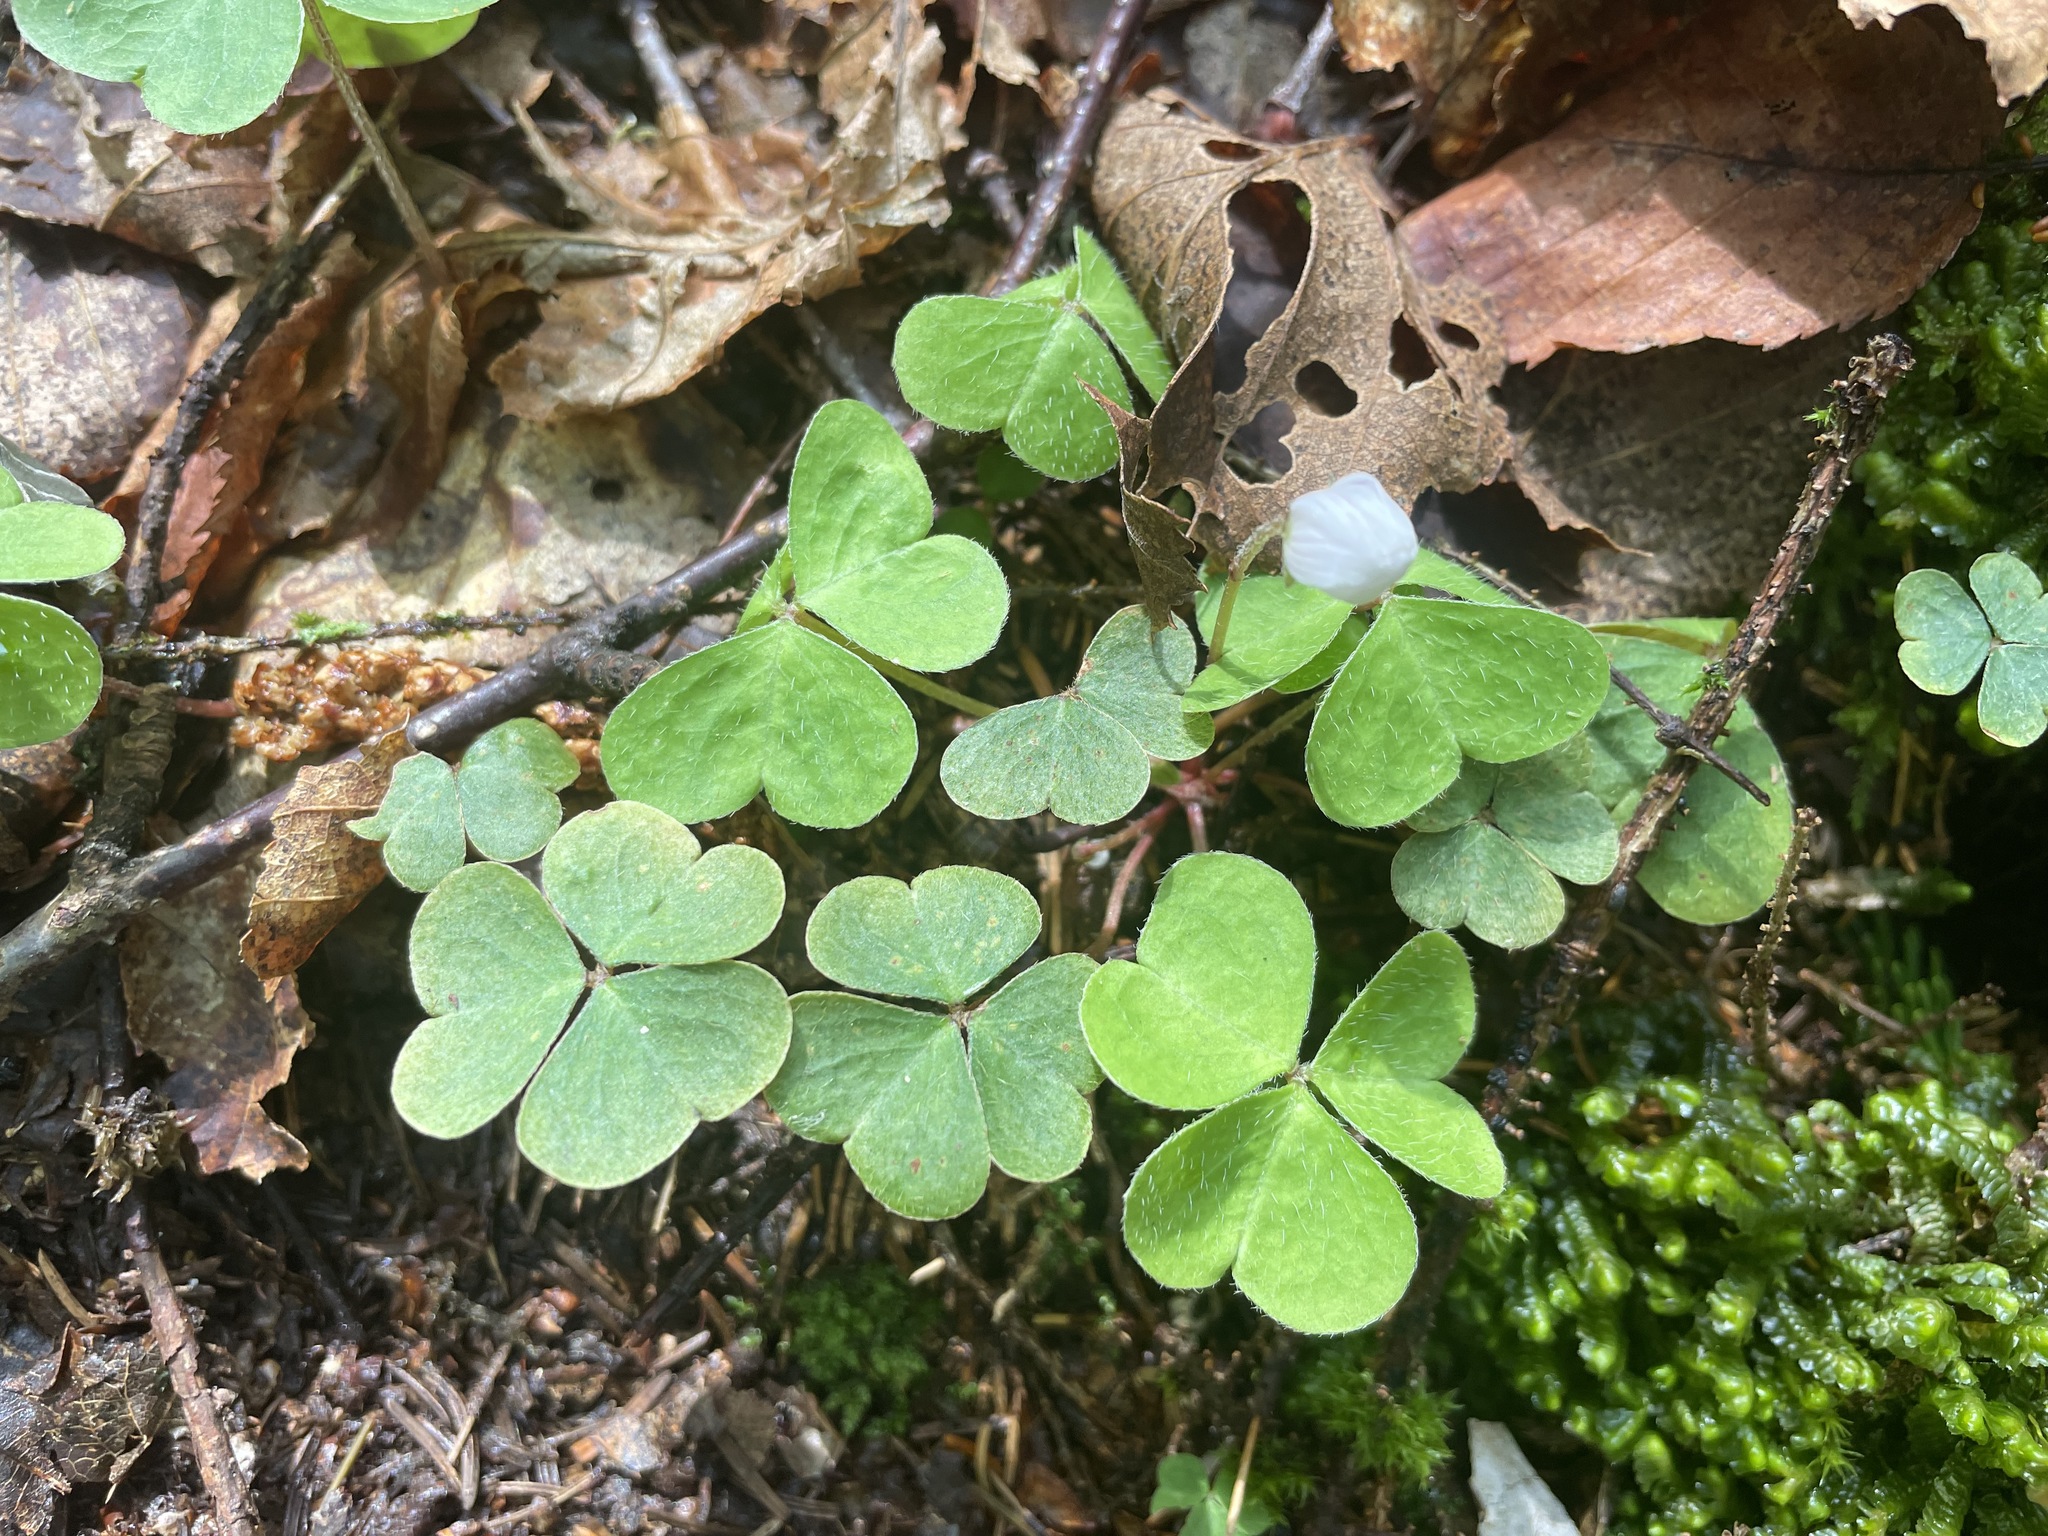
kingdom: Plantae
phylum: Tracheophyta
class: Magnoliopsida
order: Oxalidales
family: Oxalidaceae
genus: Oxalis
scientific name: Oxalis montana
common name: American wood-sorrel
